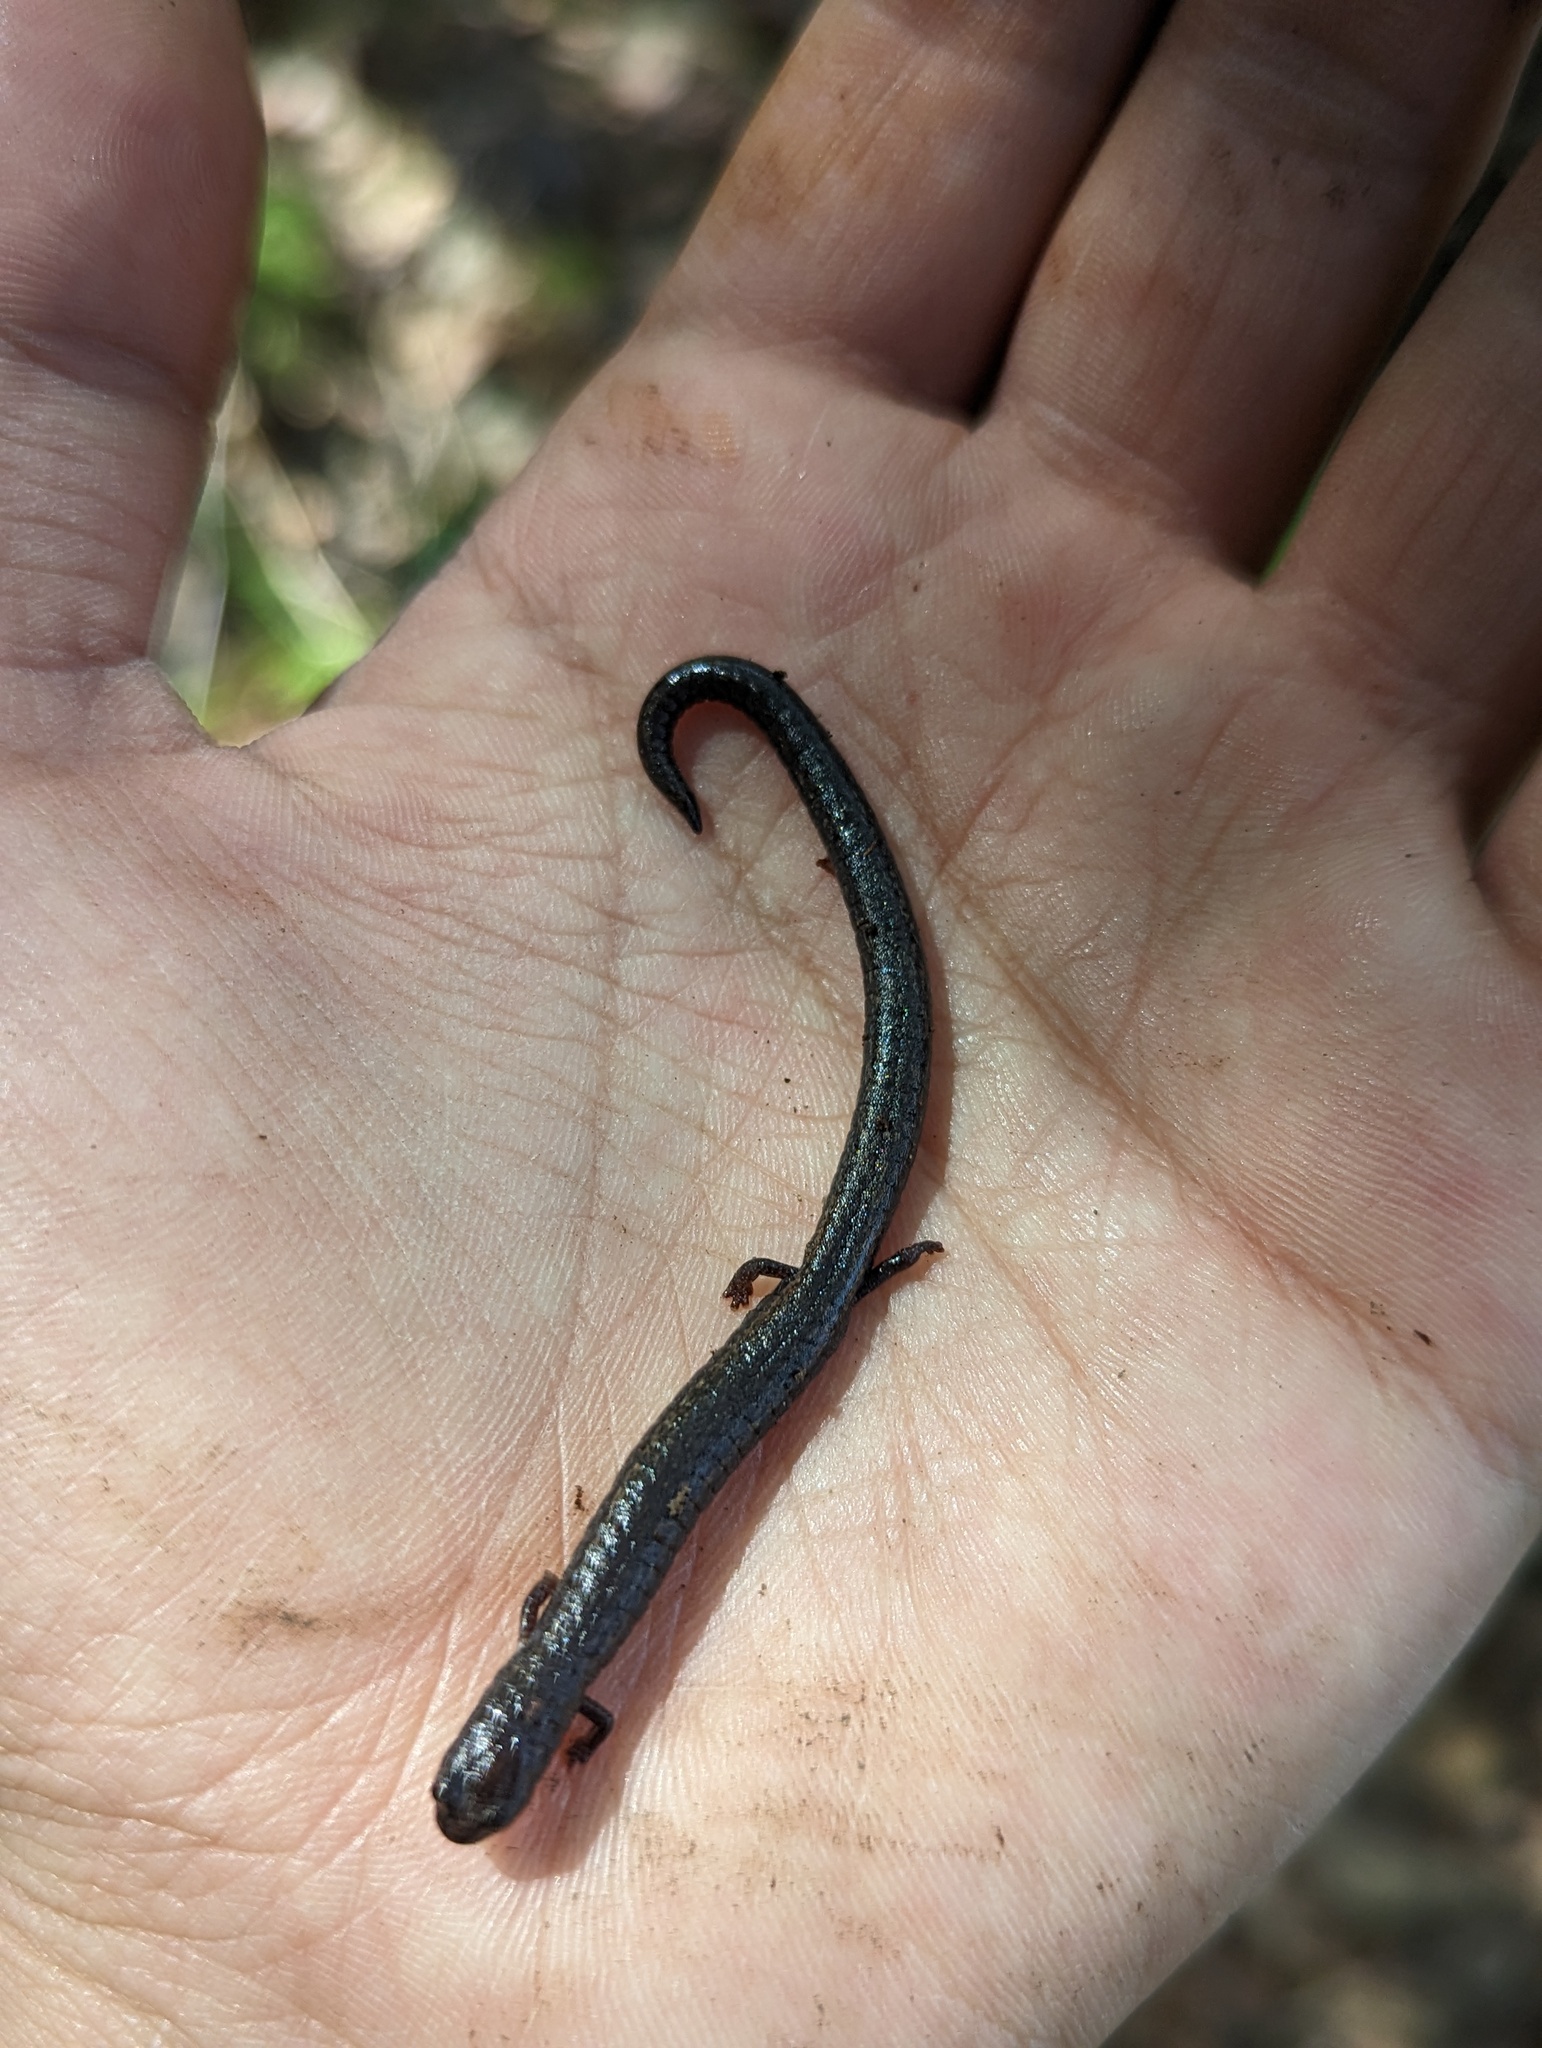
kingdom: Animalia
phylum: Chordata
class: Amphibia
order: Caudata
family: Plethodontidae
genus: Batrachoseps
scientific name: Batrachoseps nigriventris
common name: Black-bellied slender salamander
